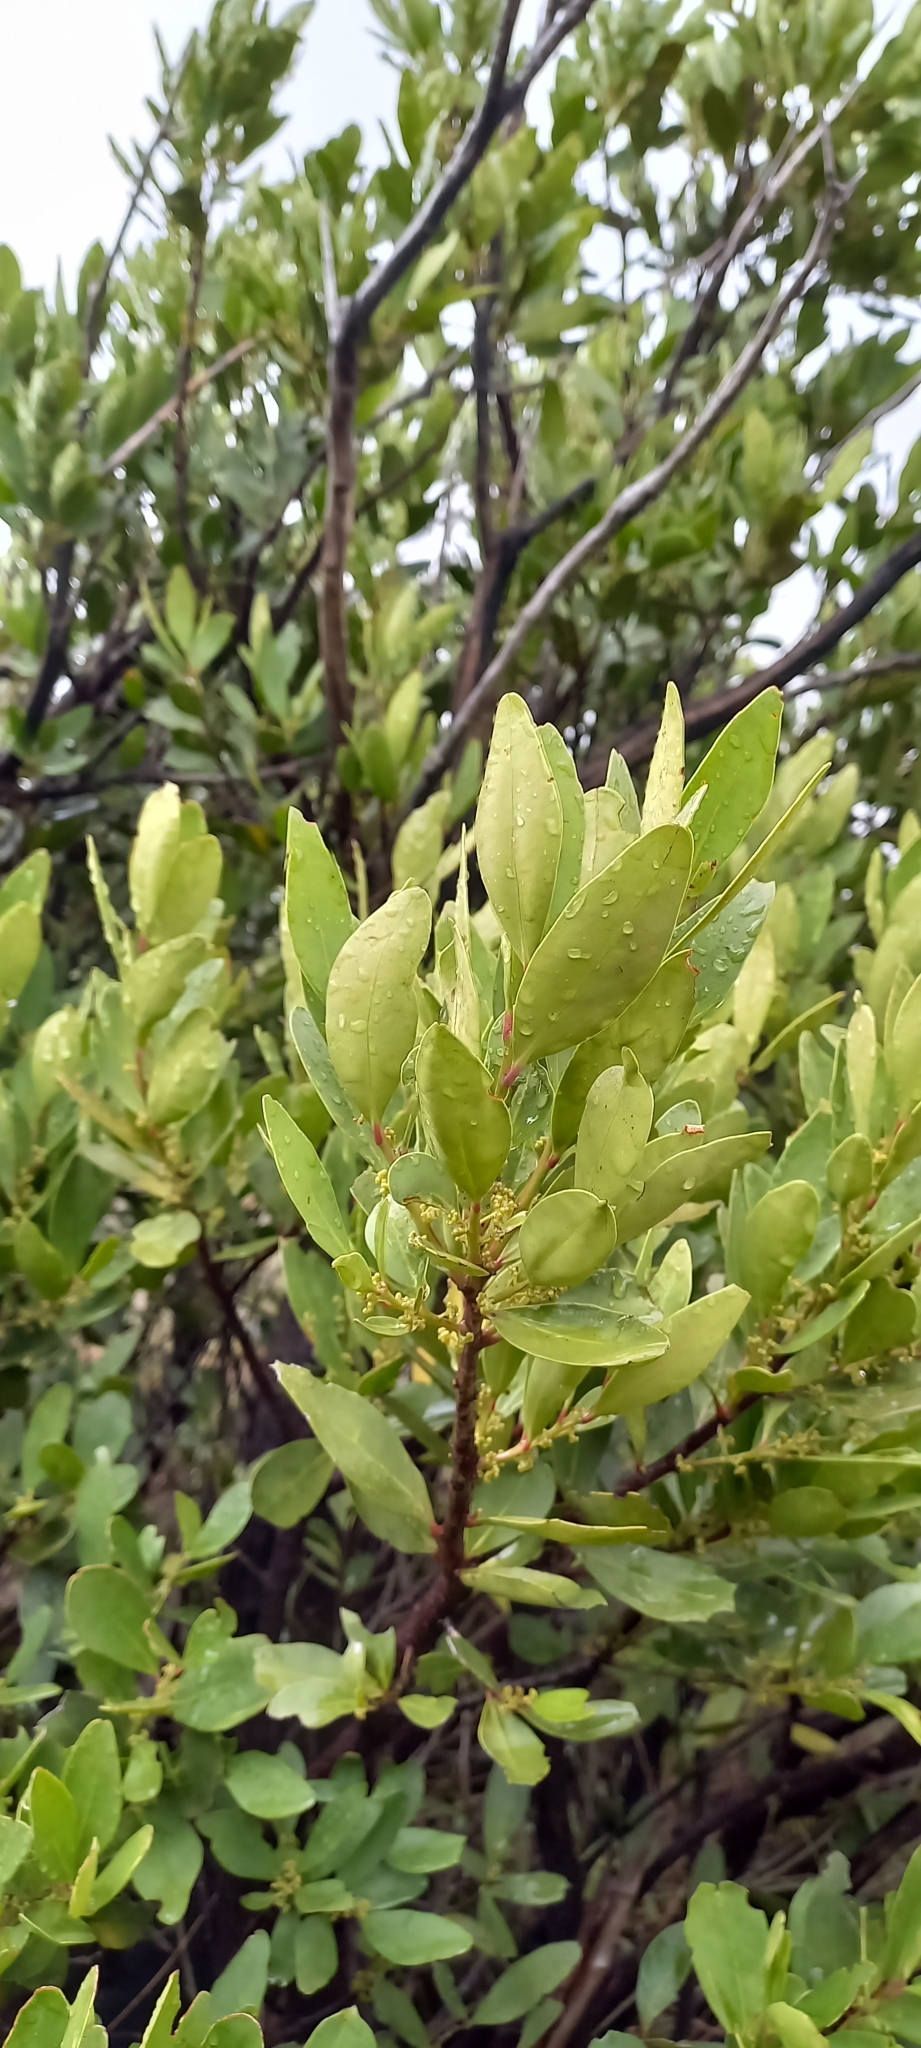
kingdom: Plantae
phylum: Tracheophyta
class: Magnoliopsida
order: Celastrales
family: Celastraceae
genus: Gymnosporia
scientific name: Gymnosporia laurina
